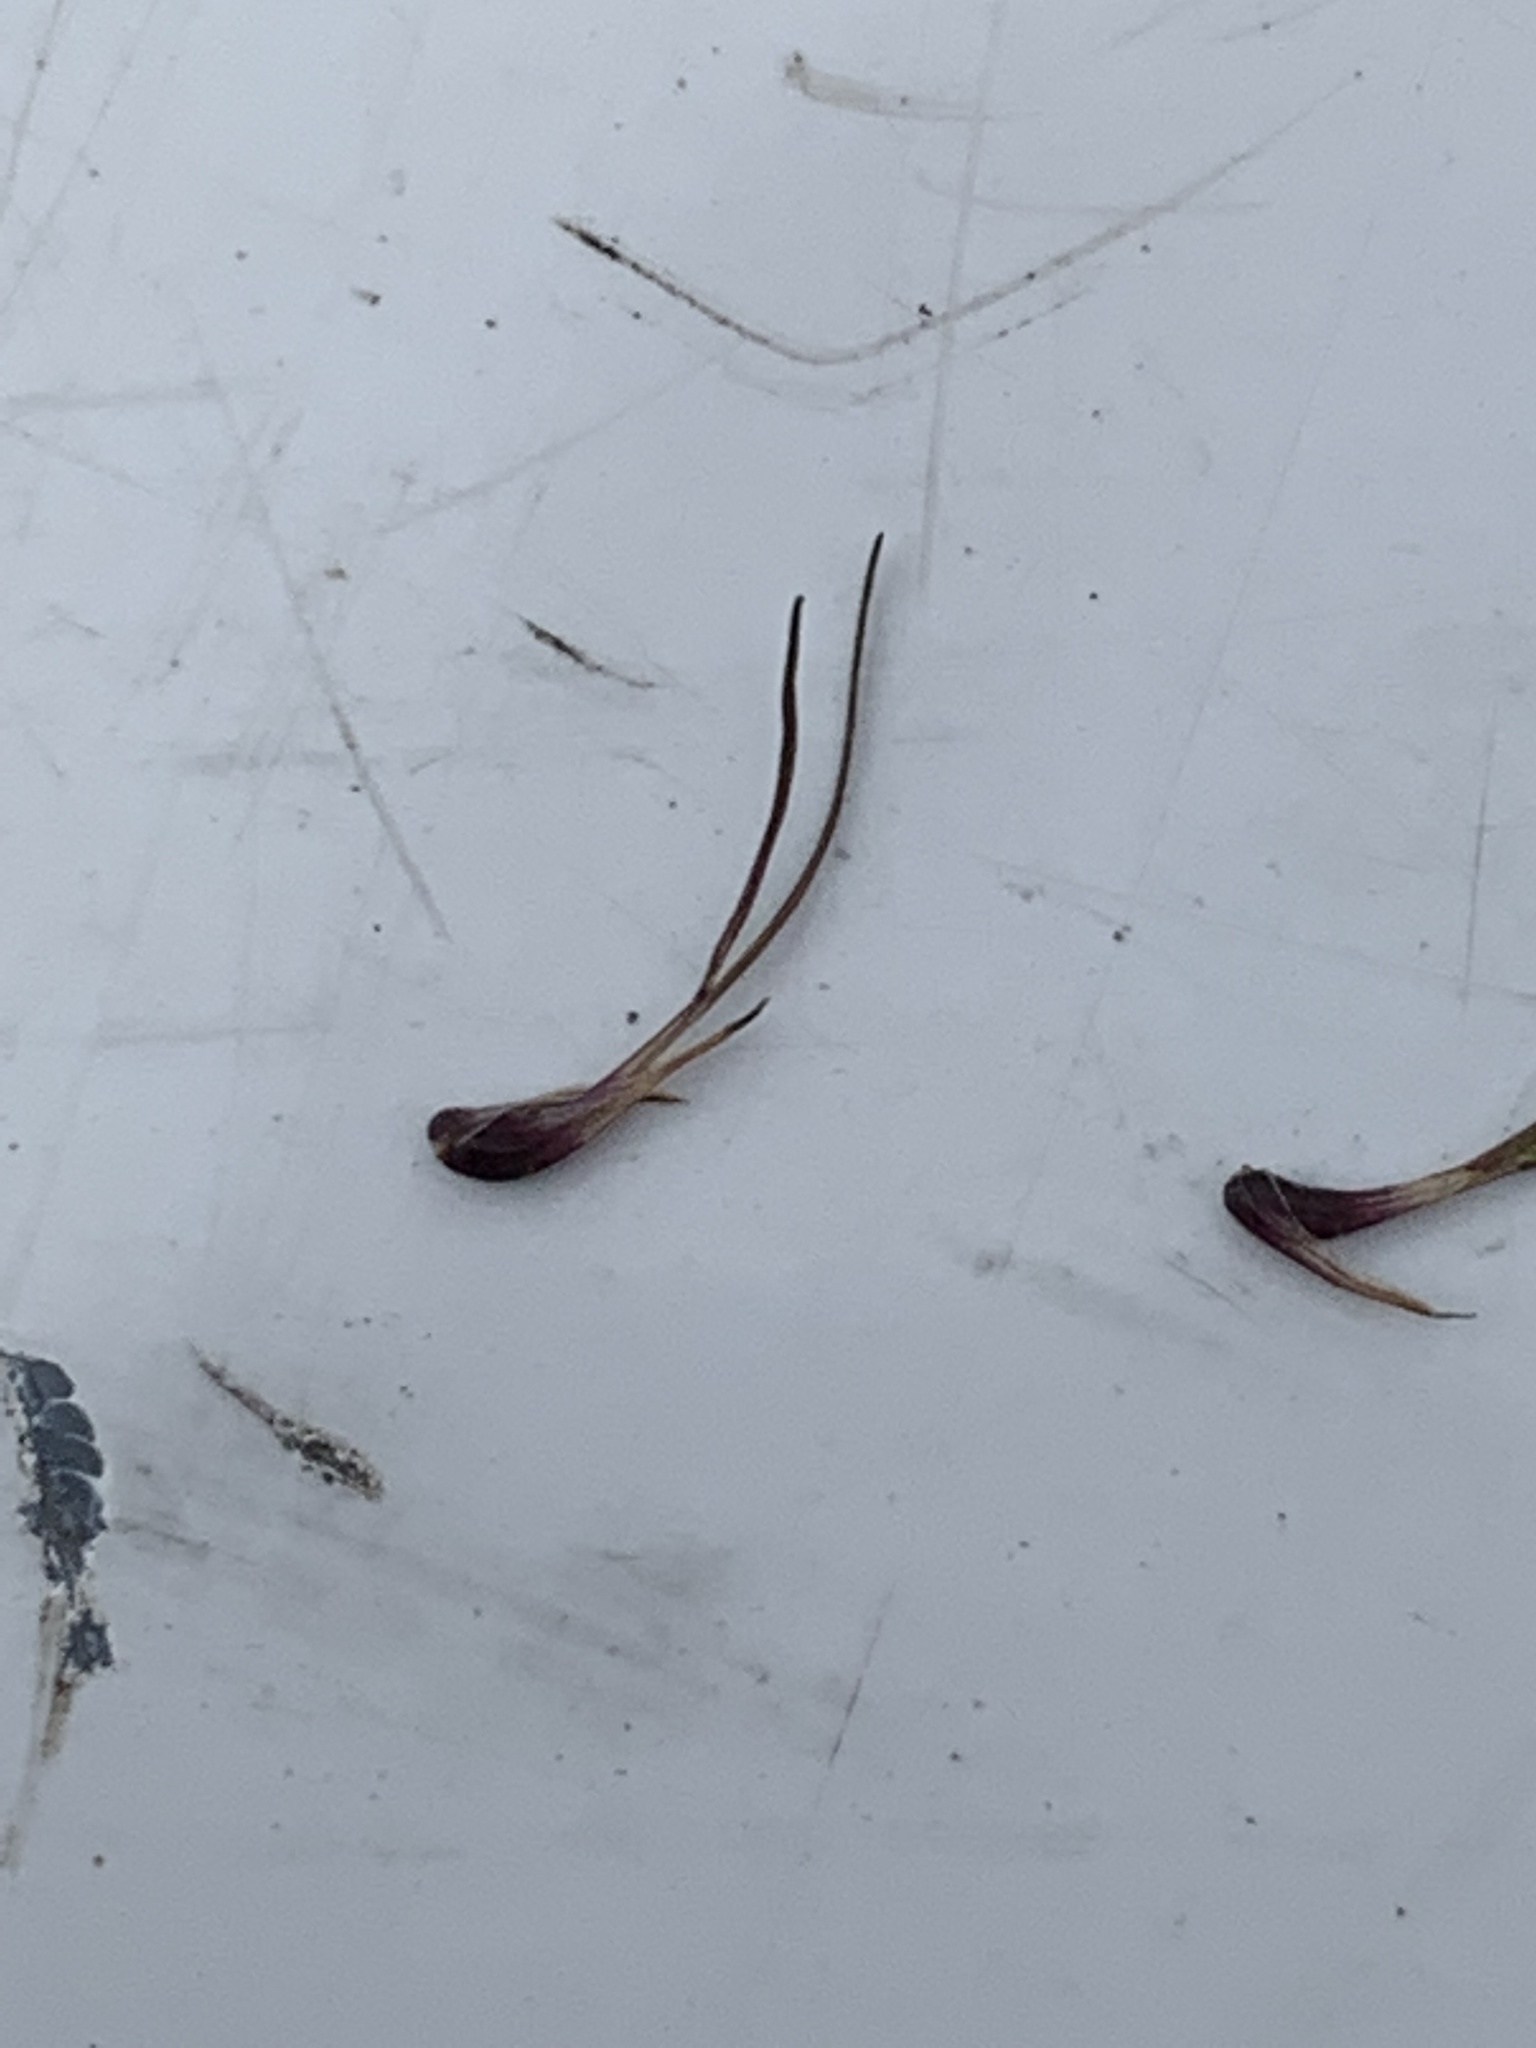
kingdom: Plantae
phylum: Tracheophyta
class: Liliopsida
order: Poales
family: Poaceae
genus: Poa
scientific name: Poa bulbosa
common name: Bulbous bluegrass
